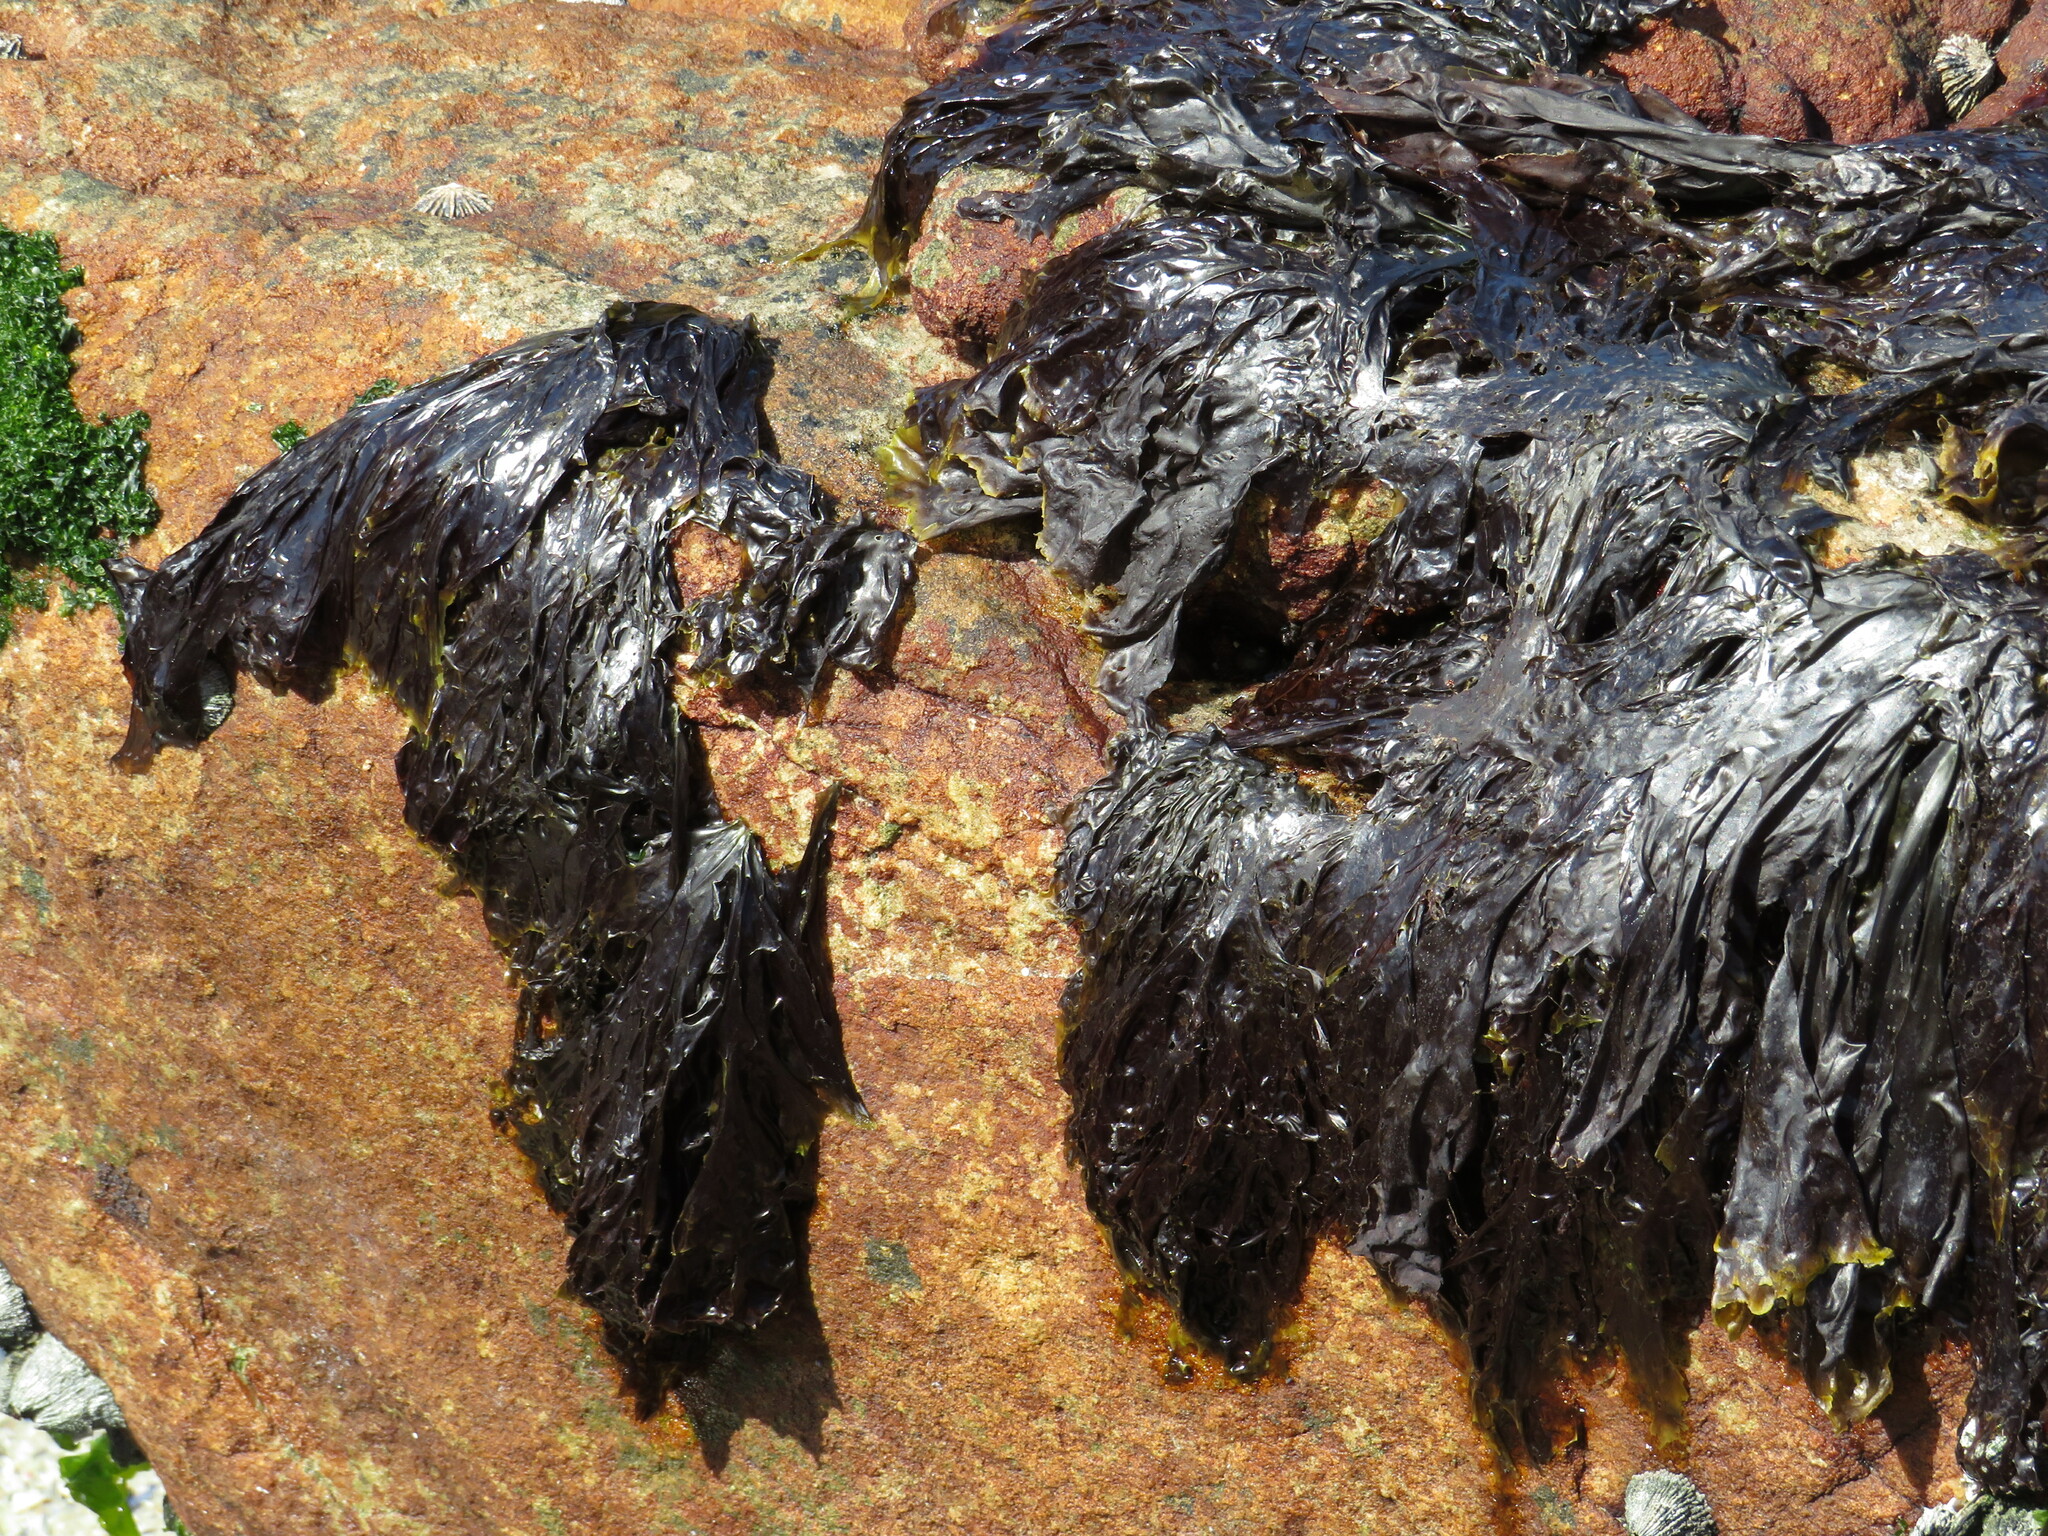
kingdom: Plantae
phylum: Rhodophyta
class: Bangiophyceae
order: Bangiales
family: Bangiaceae
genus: Porphyra
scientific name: Porphyra capensis
